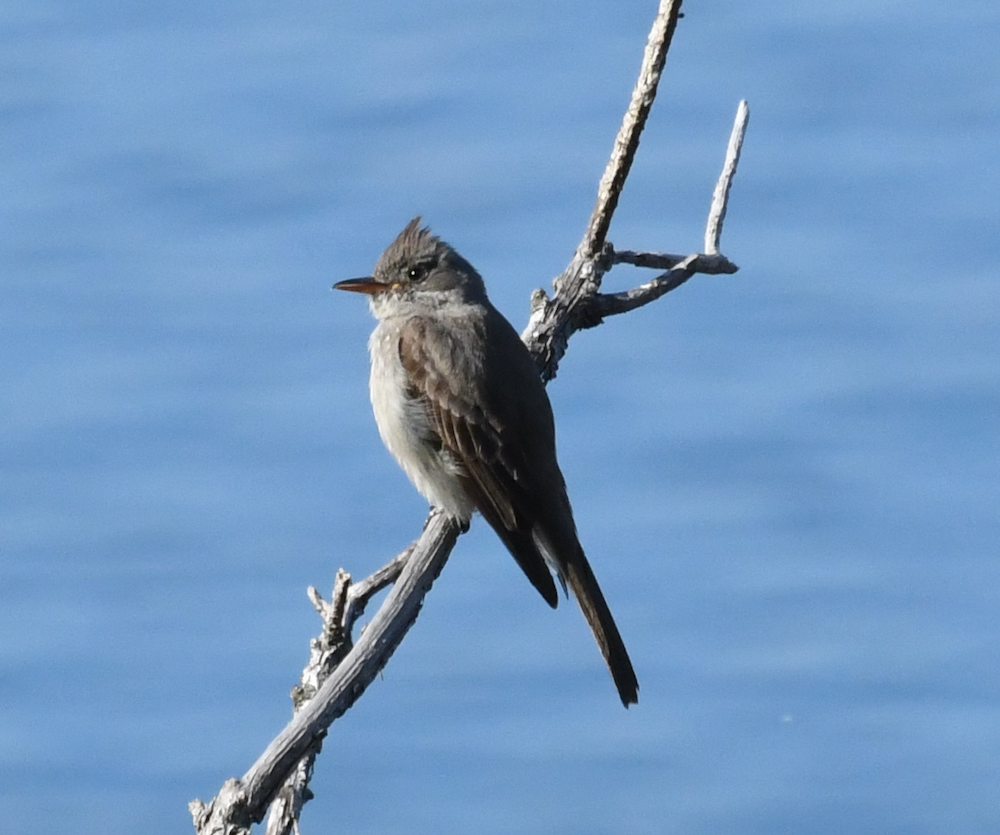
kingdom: Animalia
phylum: Chordata
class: Aves
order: Passeriformes
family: Tyrannidae
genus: Contopus
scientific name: Contopus pertinax
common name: Greater pewee
